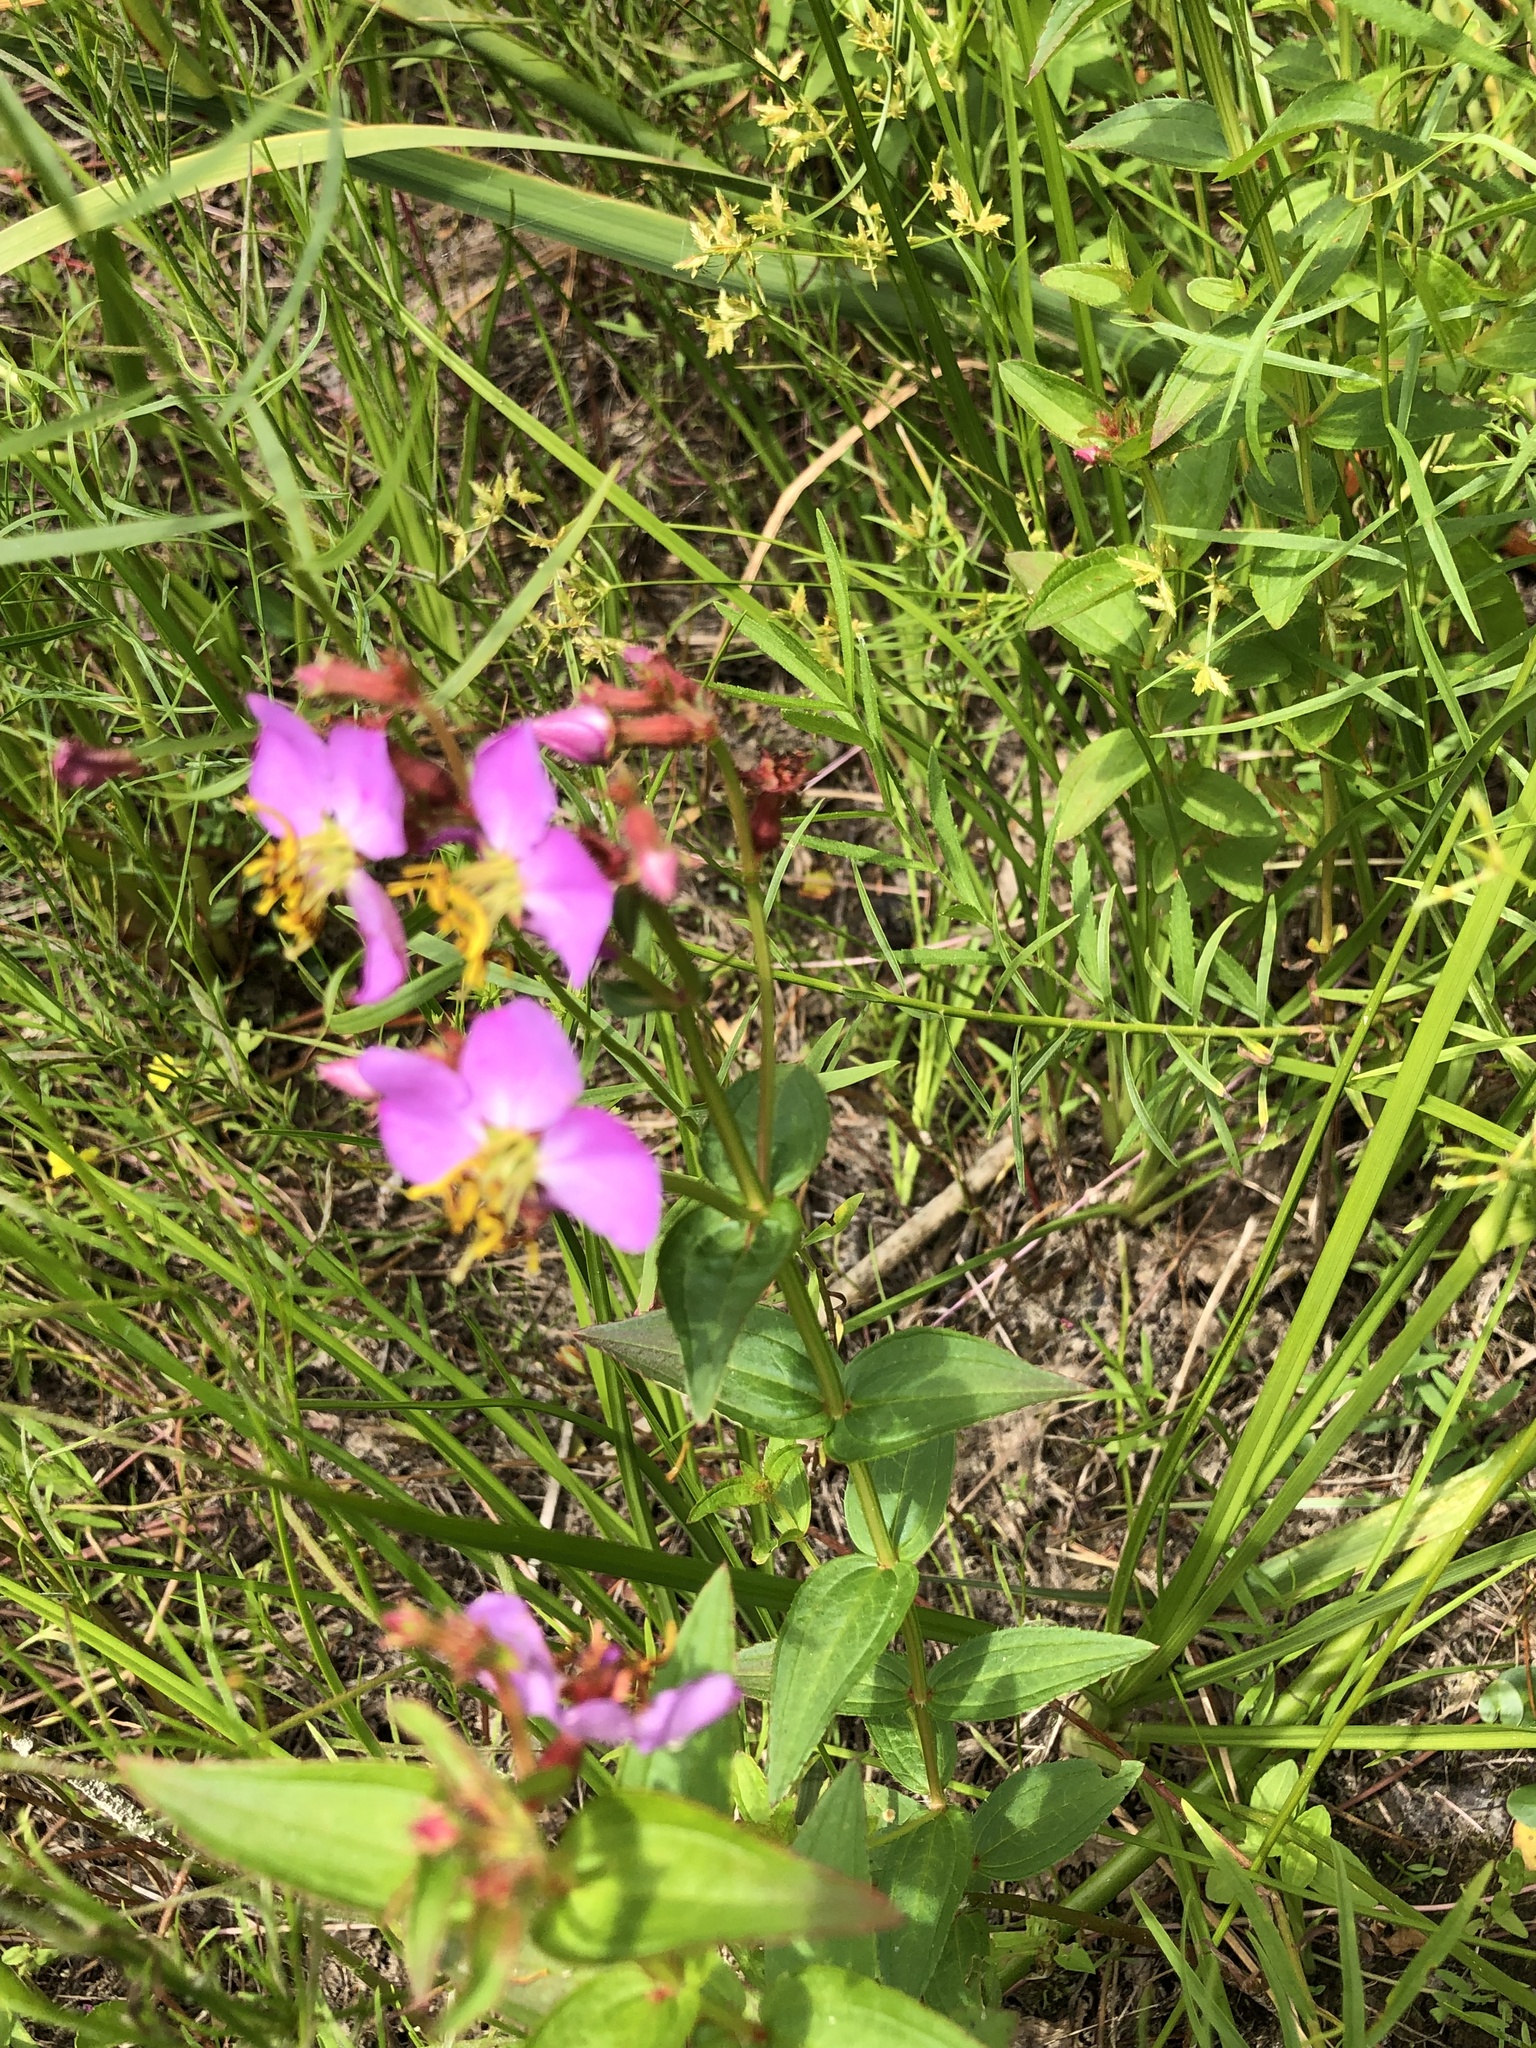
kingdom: Plantae
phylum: Tracheophyta
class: Magnoliopsida
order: Myrtales
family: Melastomataceae
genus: Rhexia
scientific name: Rhexia virginica
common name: Common meadow beauty
